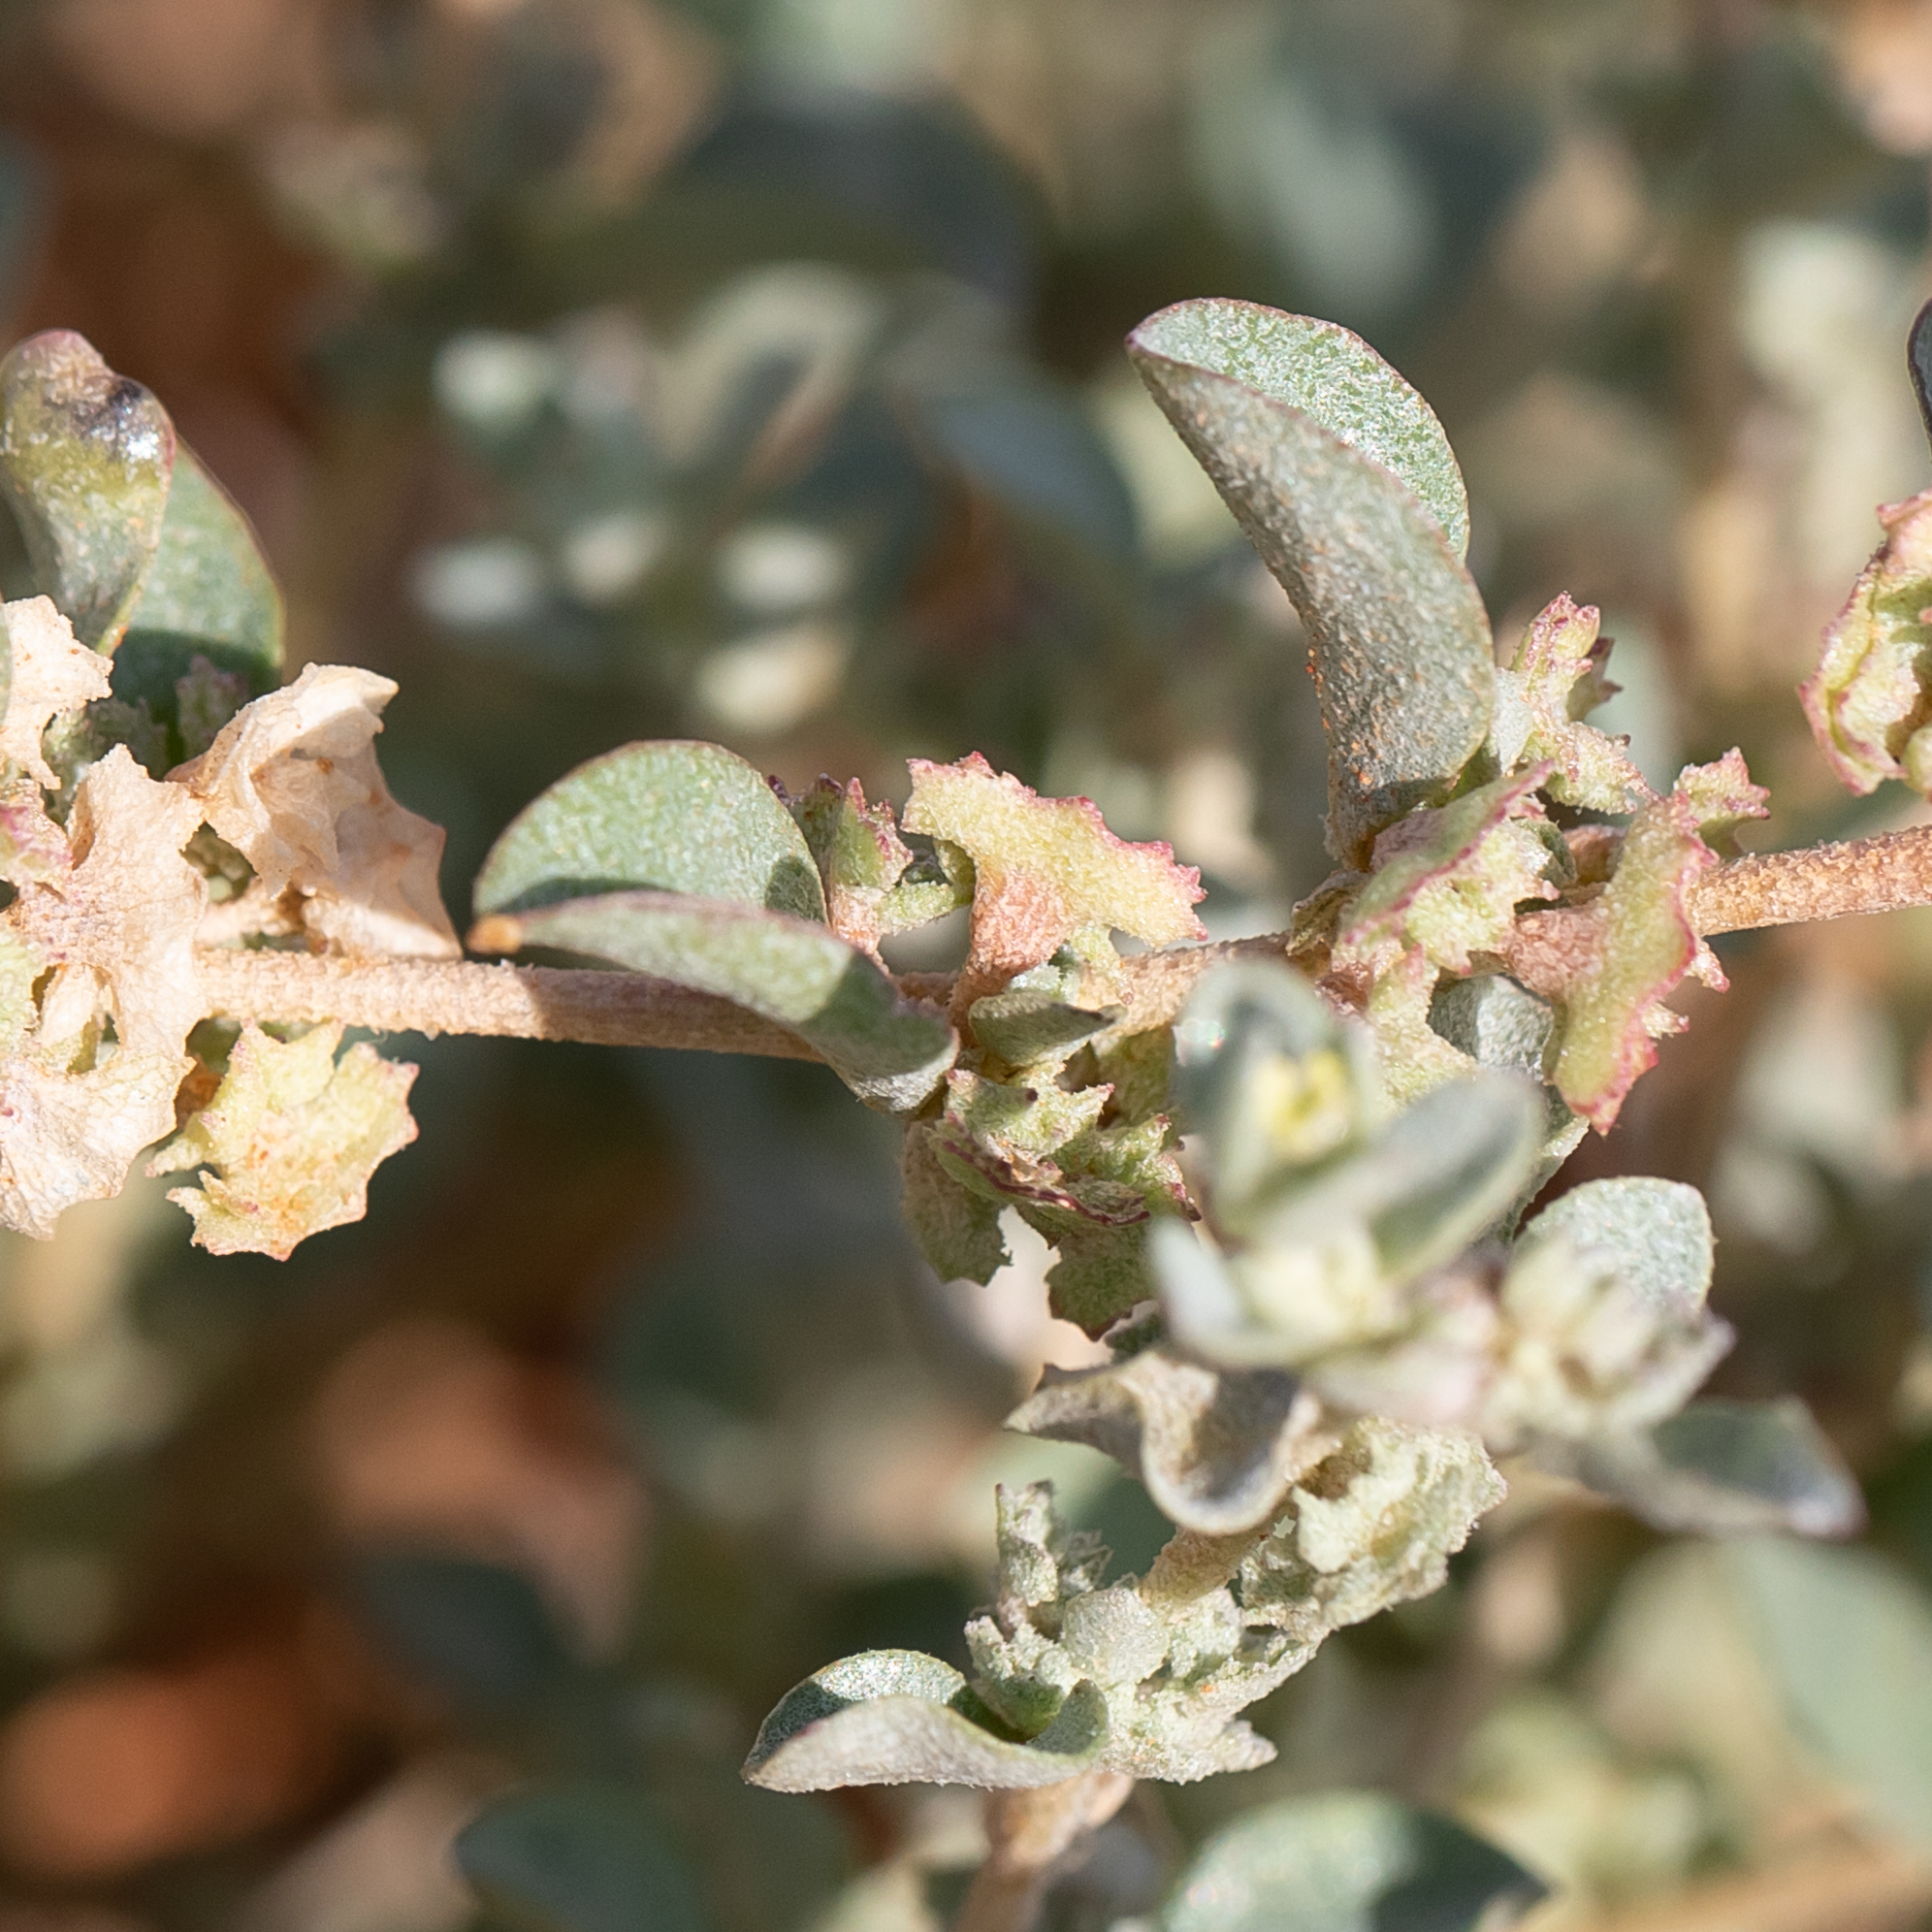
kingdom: Plantae
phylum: Tracheophyta
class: Magnoliopsida
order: Caryophyllales
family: Amaranthaceae
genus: Atriplex
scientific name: Atriplex eardleyae
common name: Small saltbush
